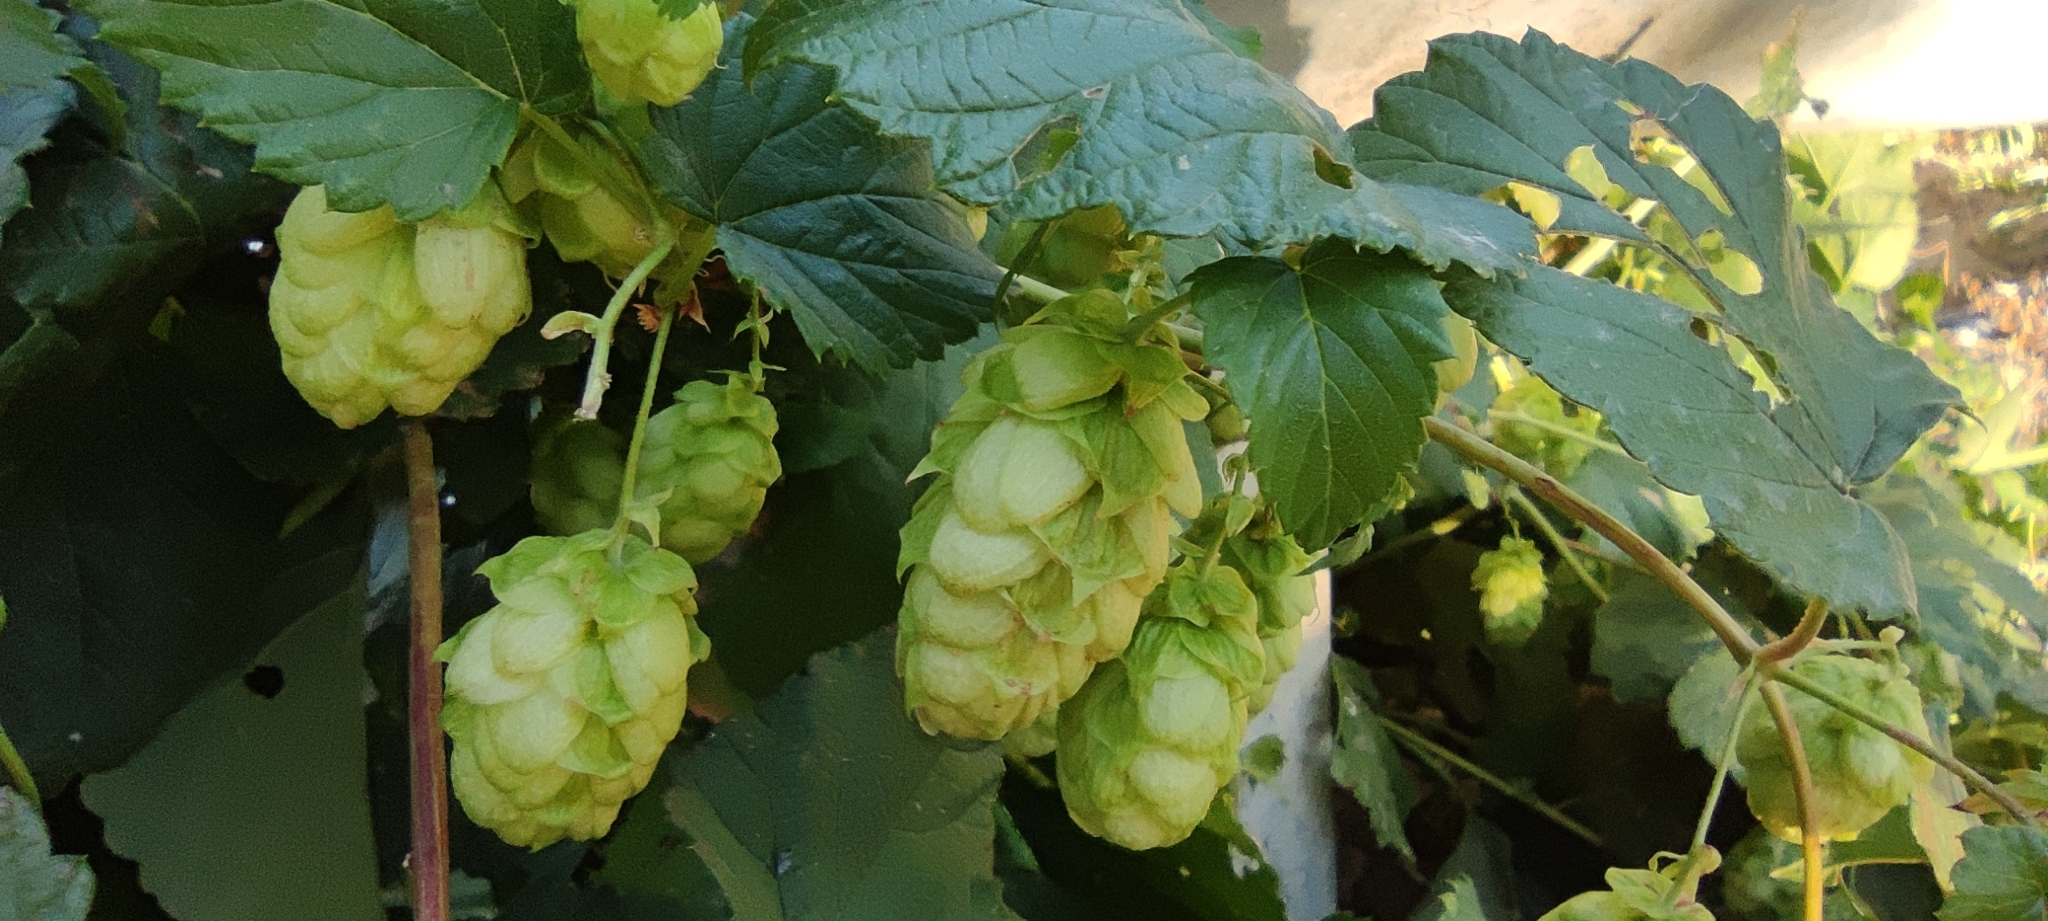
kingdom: Plantae
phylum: Tracheophyta
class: Magnoliopsida
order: Rosales
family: Cannabaceae
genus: Humulus
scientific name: Humulus lupulus
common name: Hop
